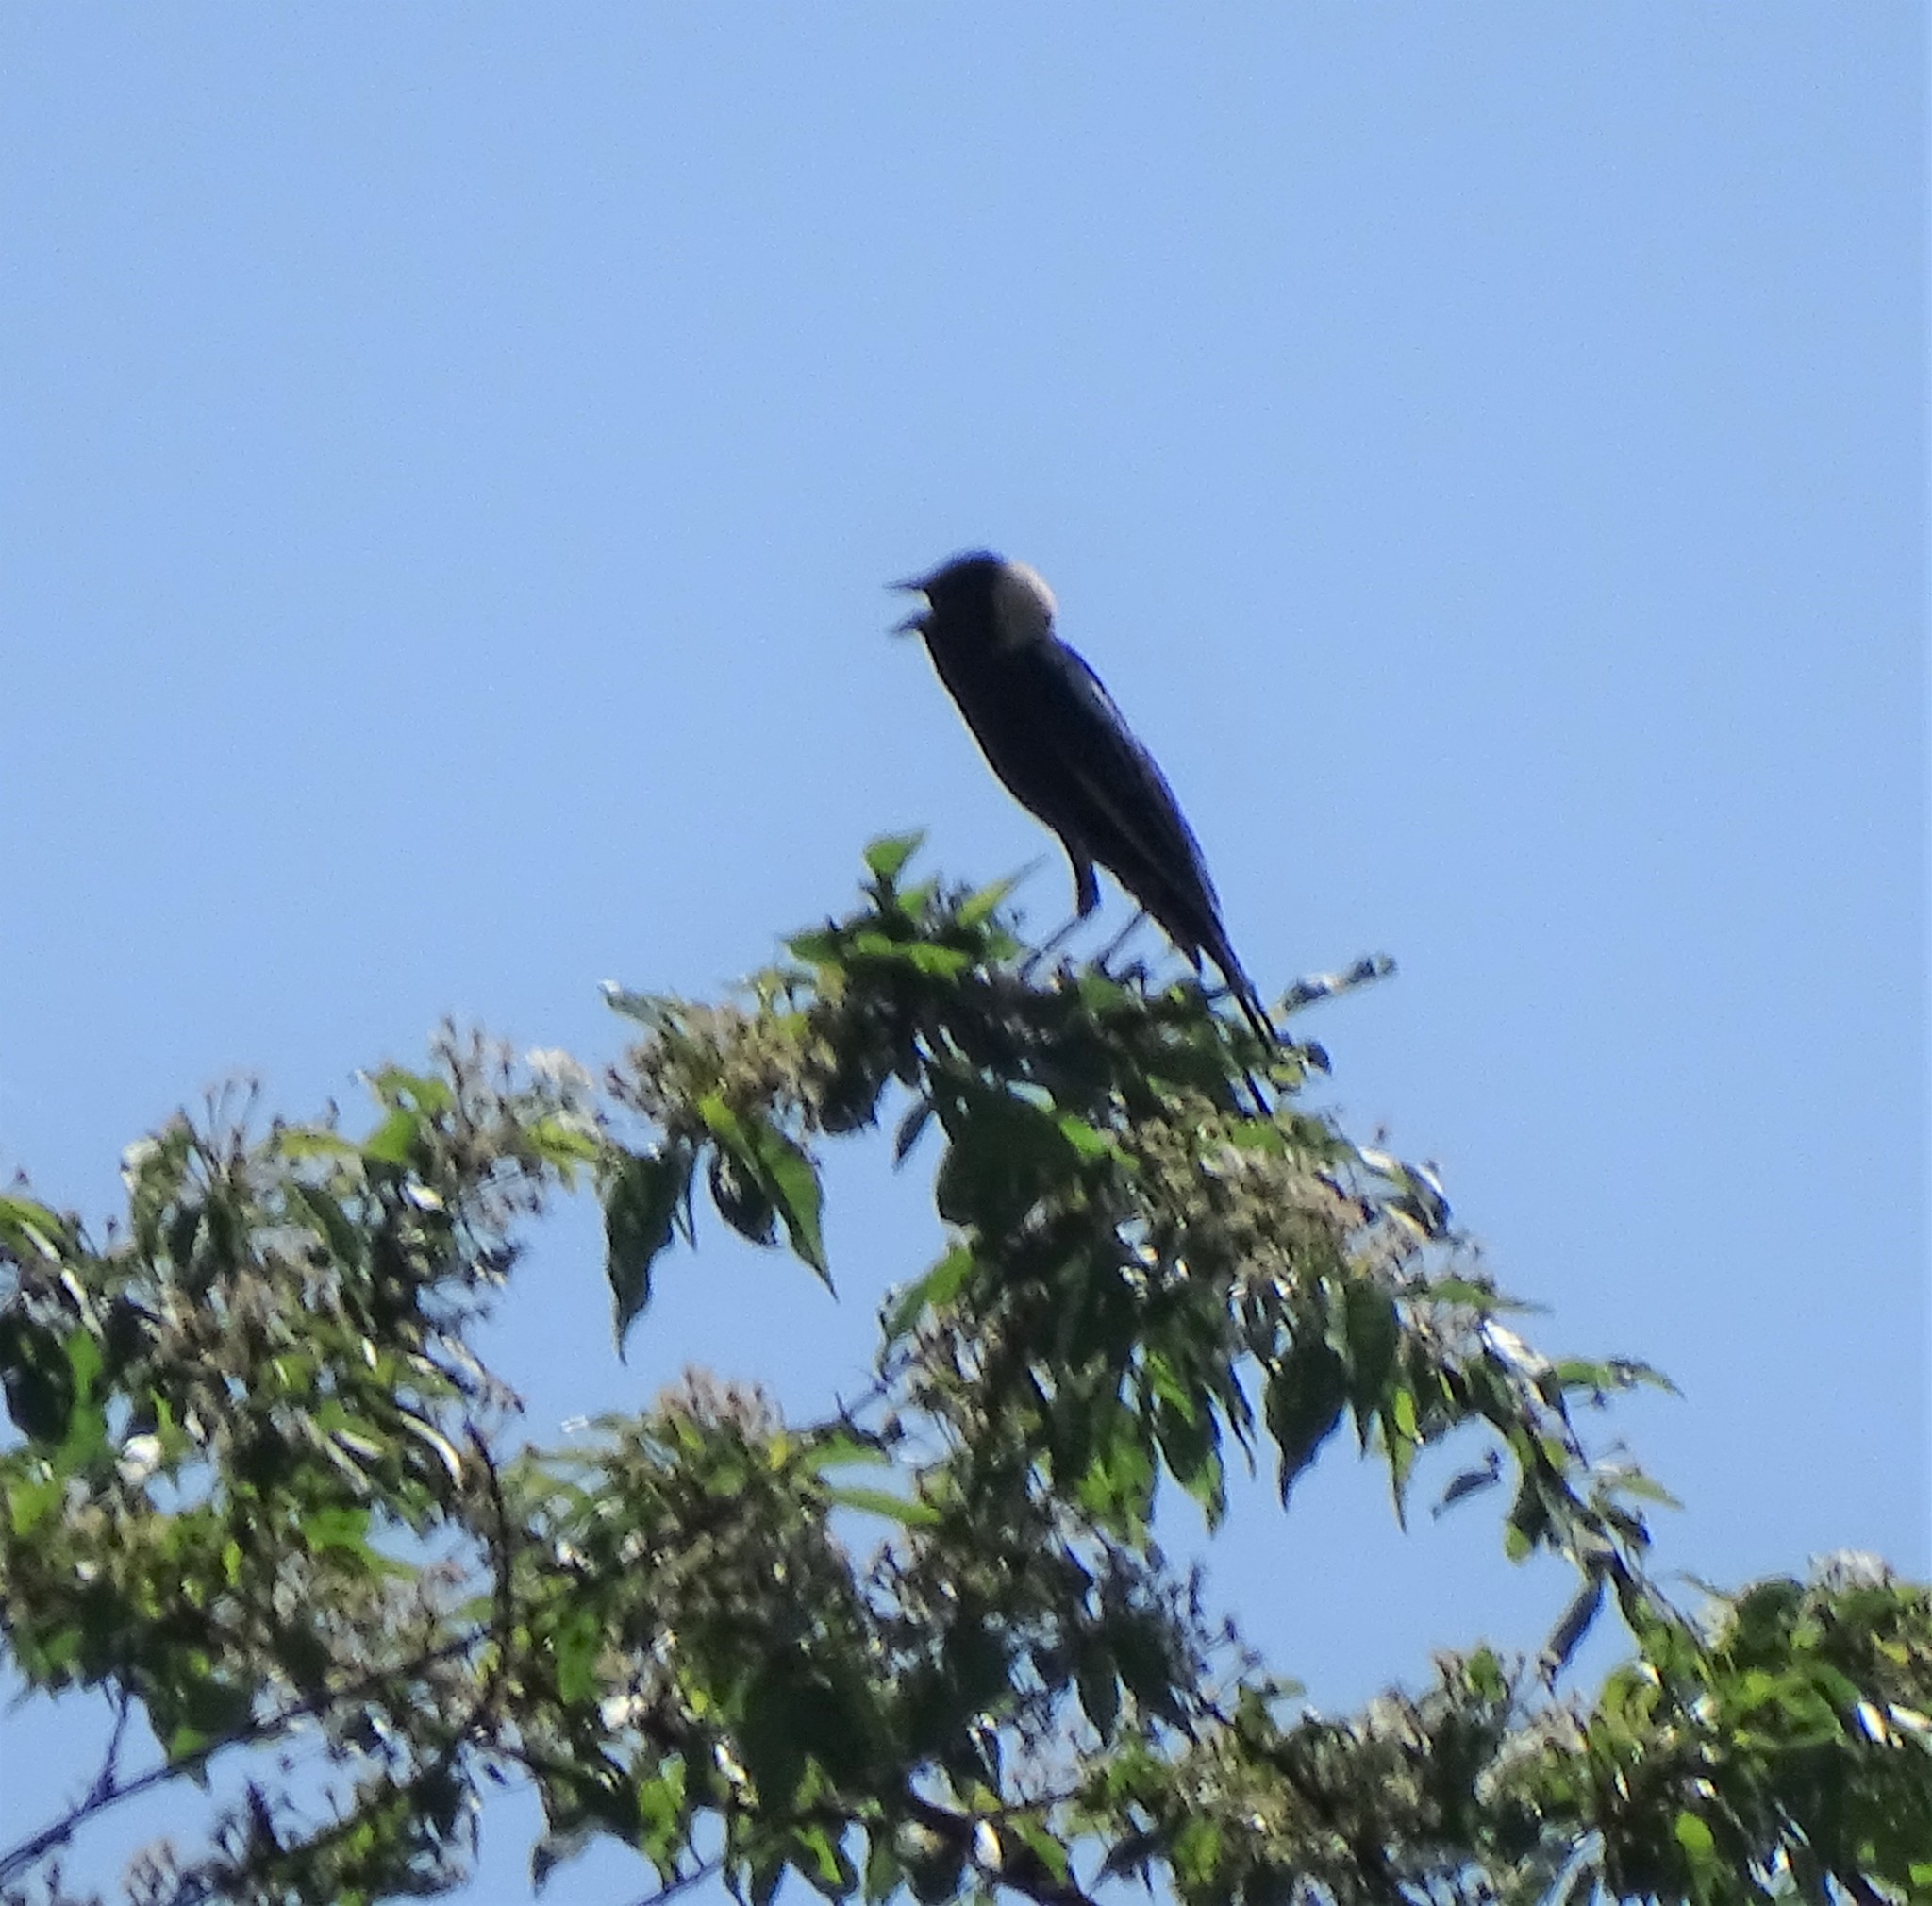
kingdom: Animalia
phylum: Chordata
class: Aves
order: Passeriformes
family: Icteridae
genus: Dolichonyx
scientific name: Dolichonyx oryzivorus
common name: Bobolink
